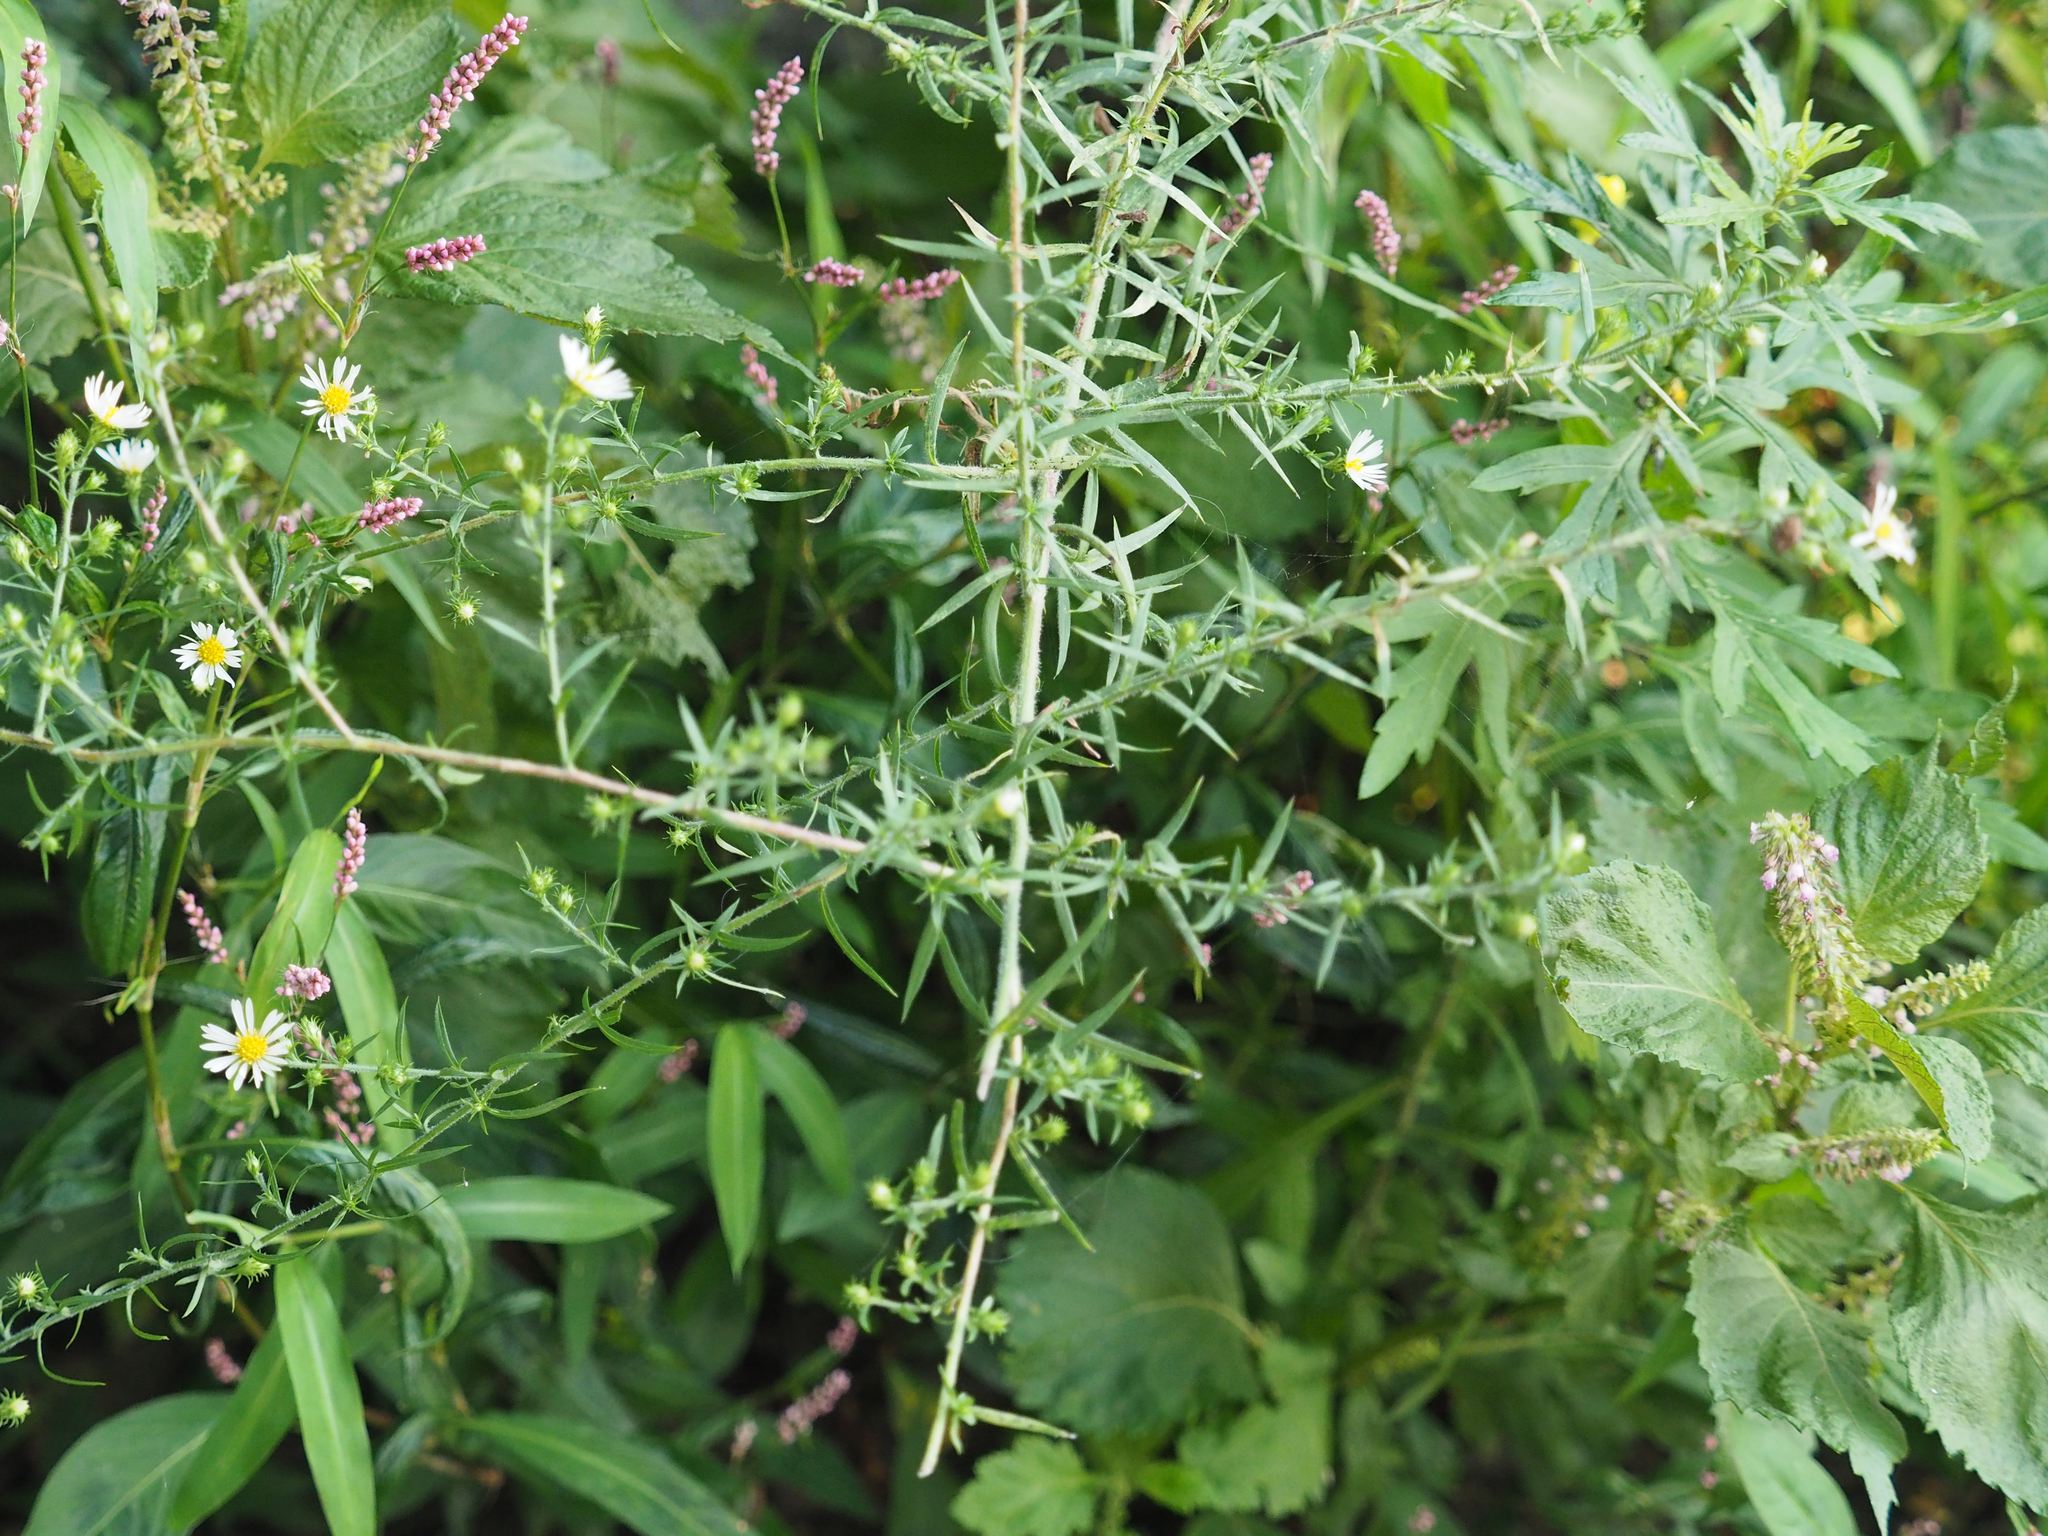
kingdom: Plantae
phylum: Tracheophyta
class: Magnoliopsida
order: Asterales
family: Asteraceae
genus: Symphyotrichum
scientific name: Symphyotrichum pilosum
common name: Awl aster
